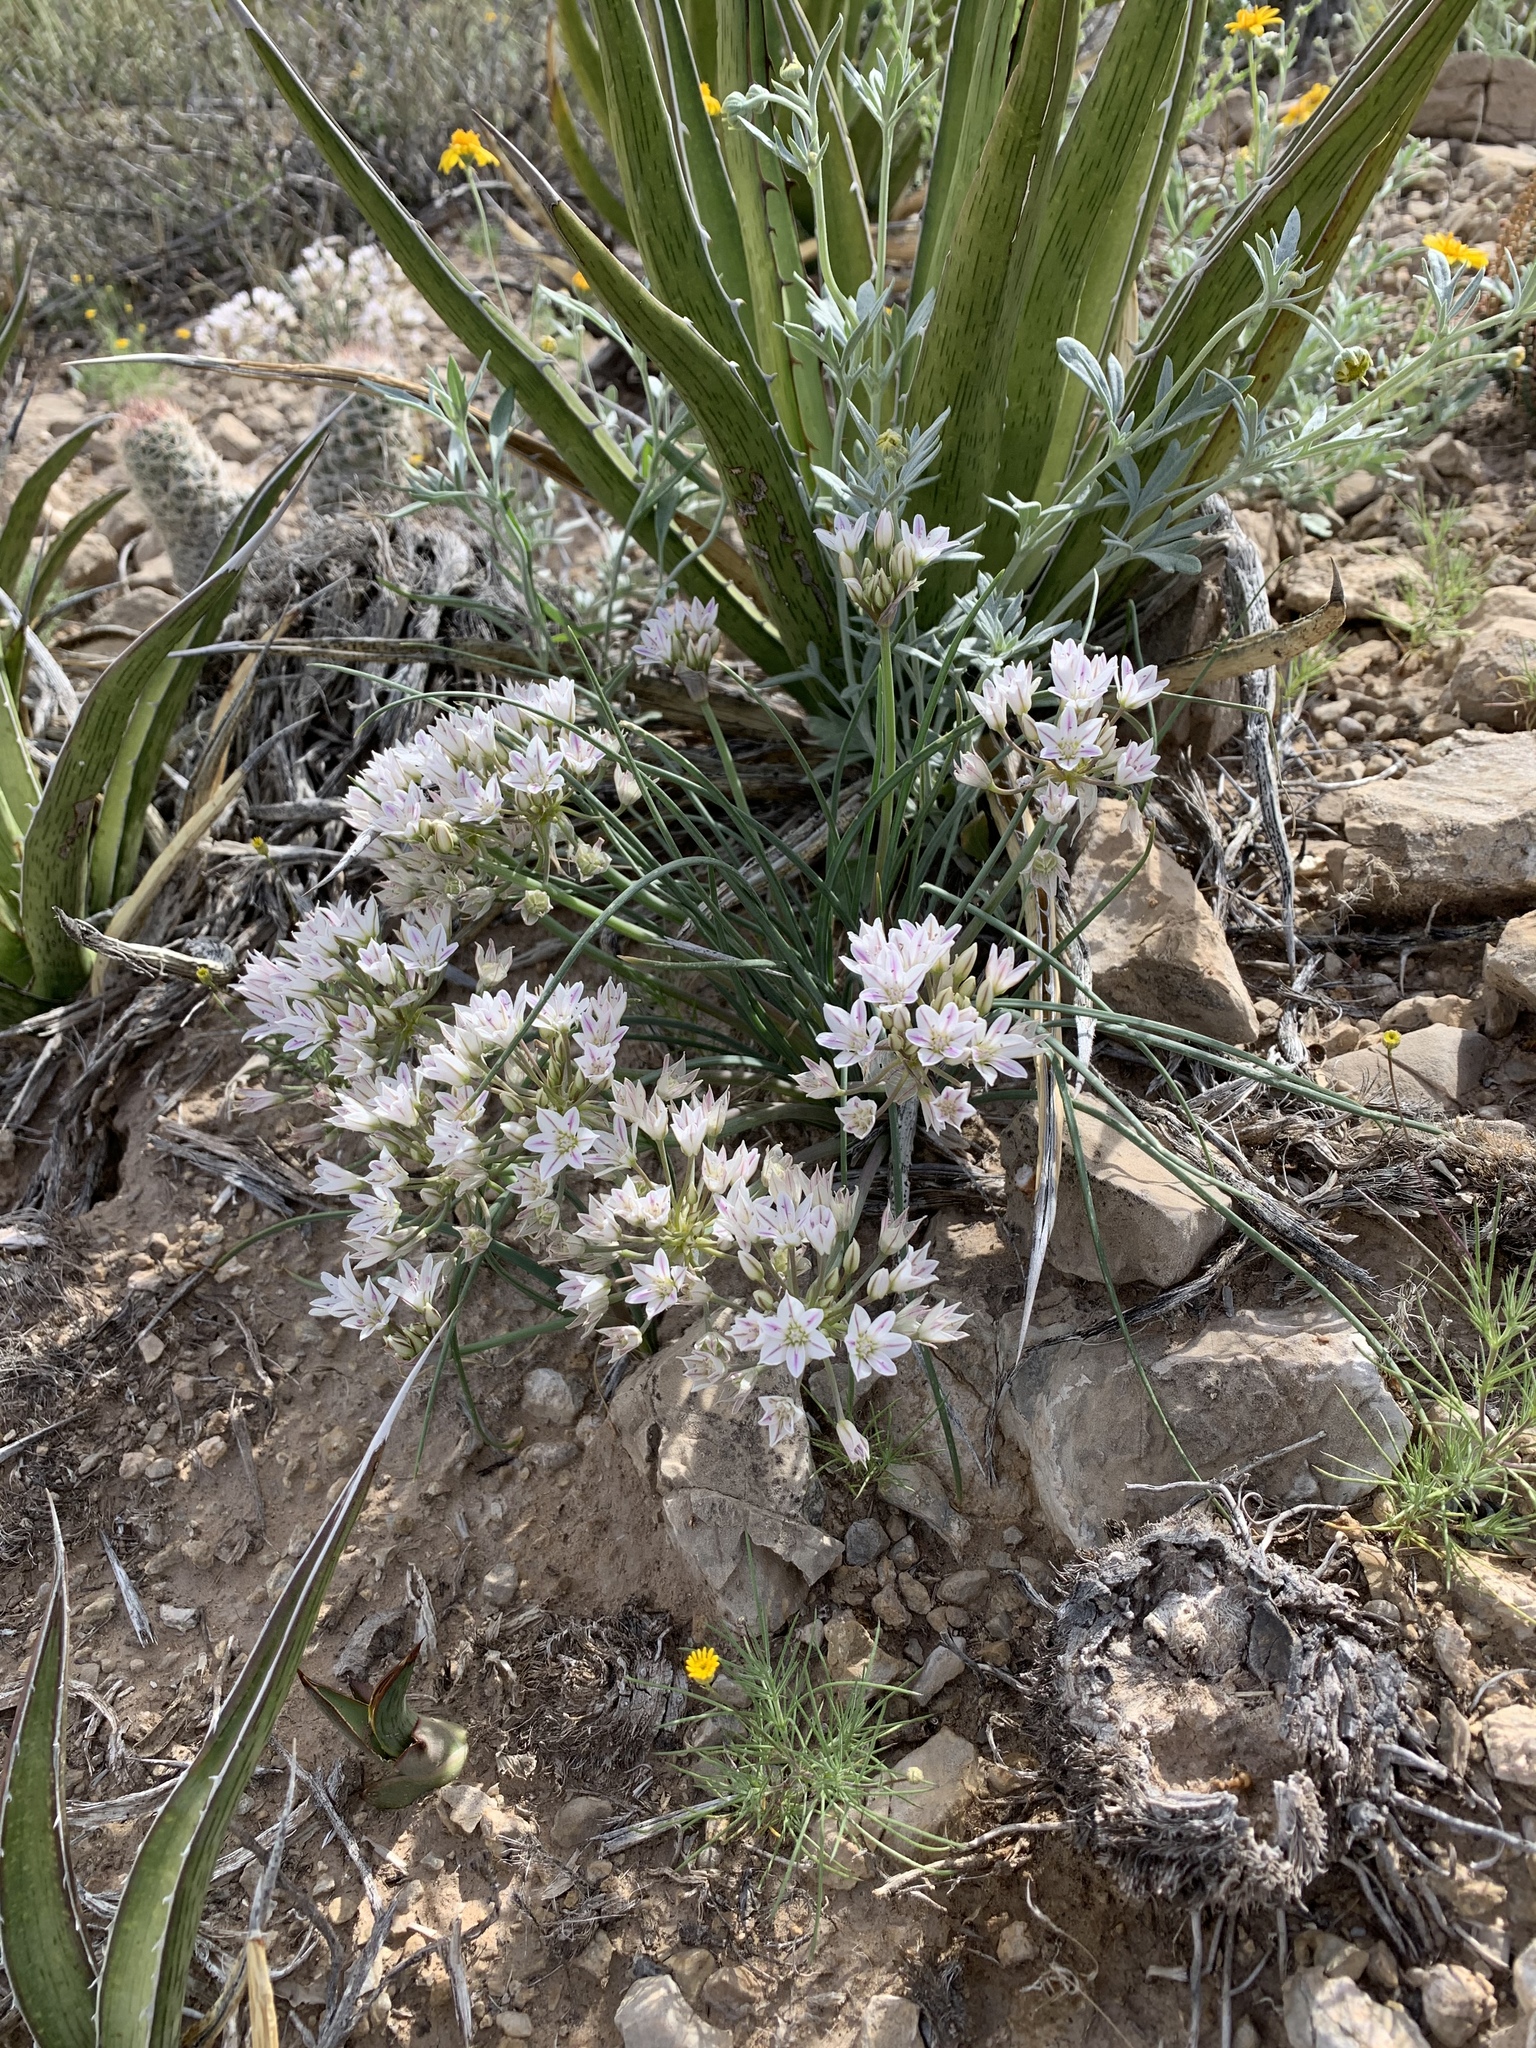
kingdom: Plantae
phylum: Tracheophyta
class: Liliopsida
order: Asparagales
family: Amaryllidaceae
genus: Allium
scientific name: Allium macropetalum
